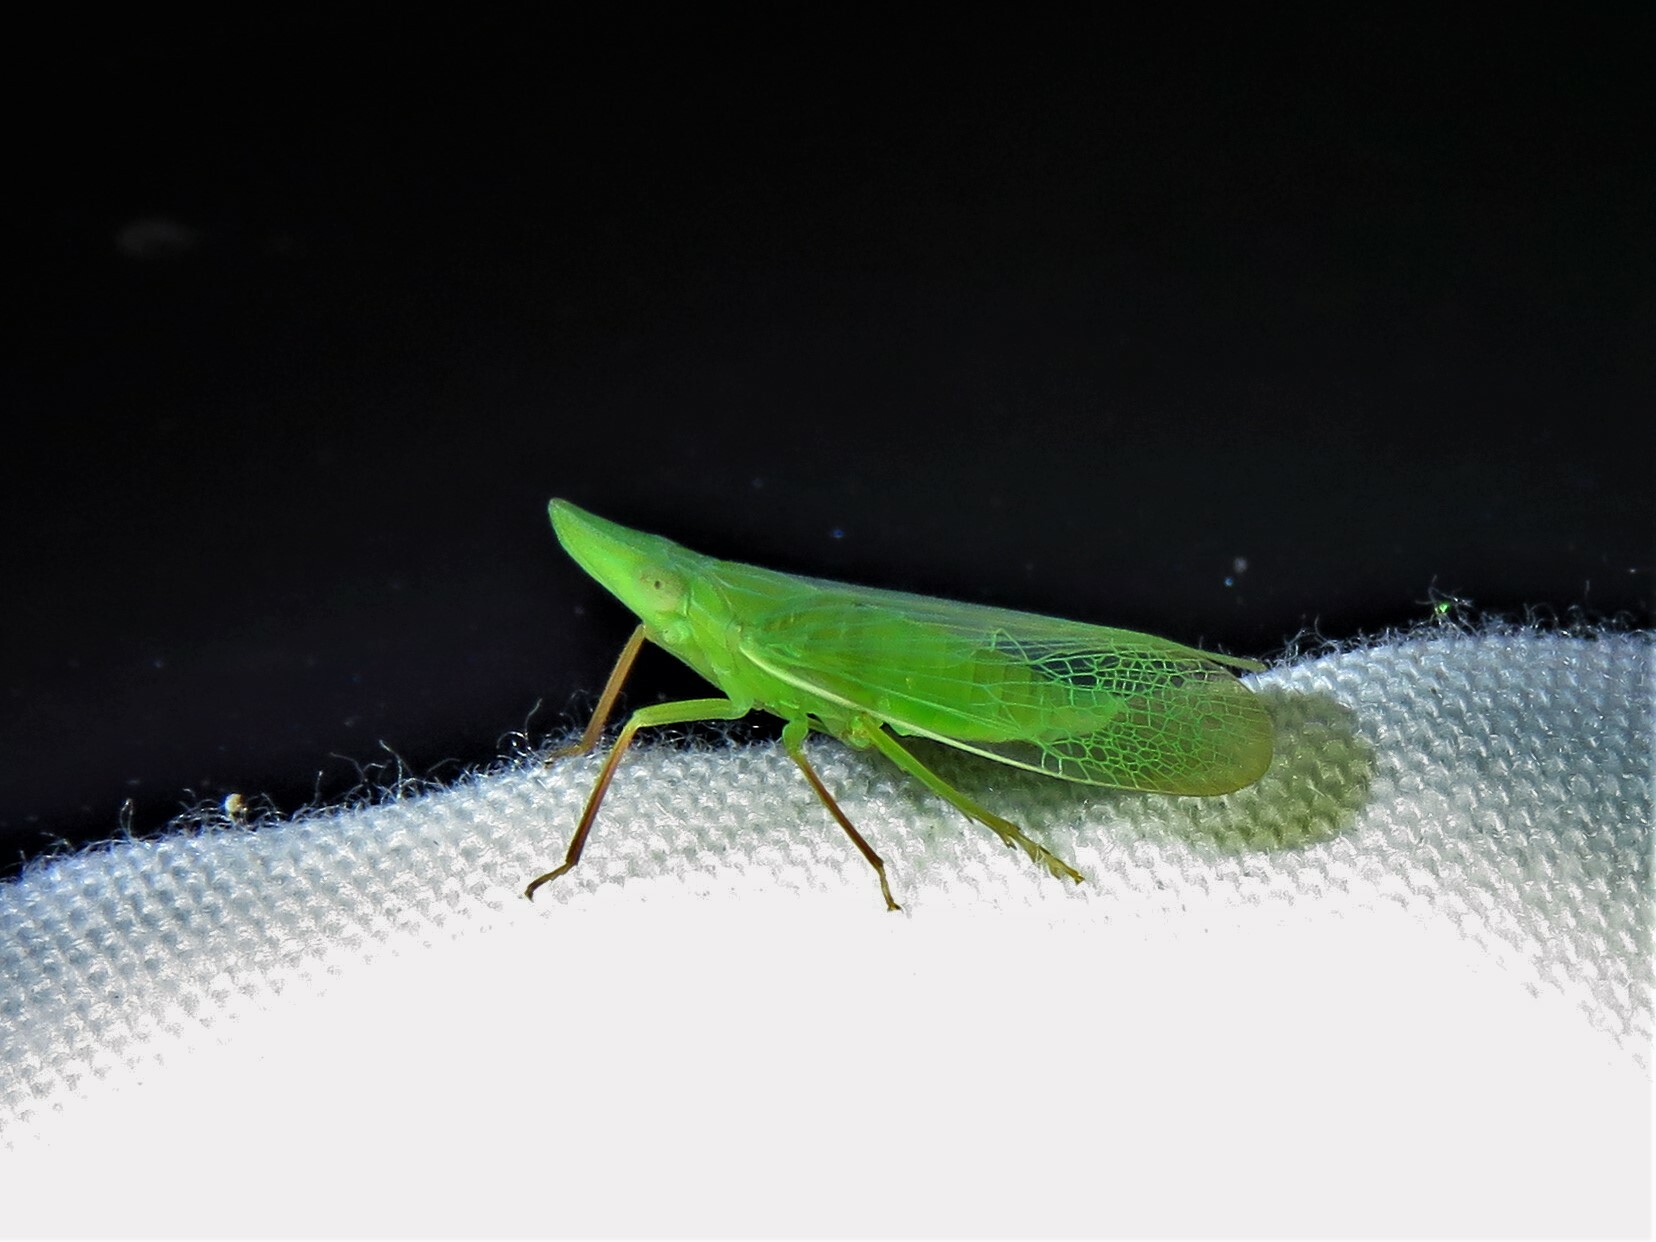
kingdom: Animalia
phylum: Arthropoda
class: Insecta
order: Hemiptera
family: Dictyopharidae
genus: Rhynchomitra
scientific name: Rhynchomitra recurva
